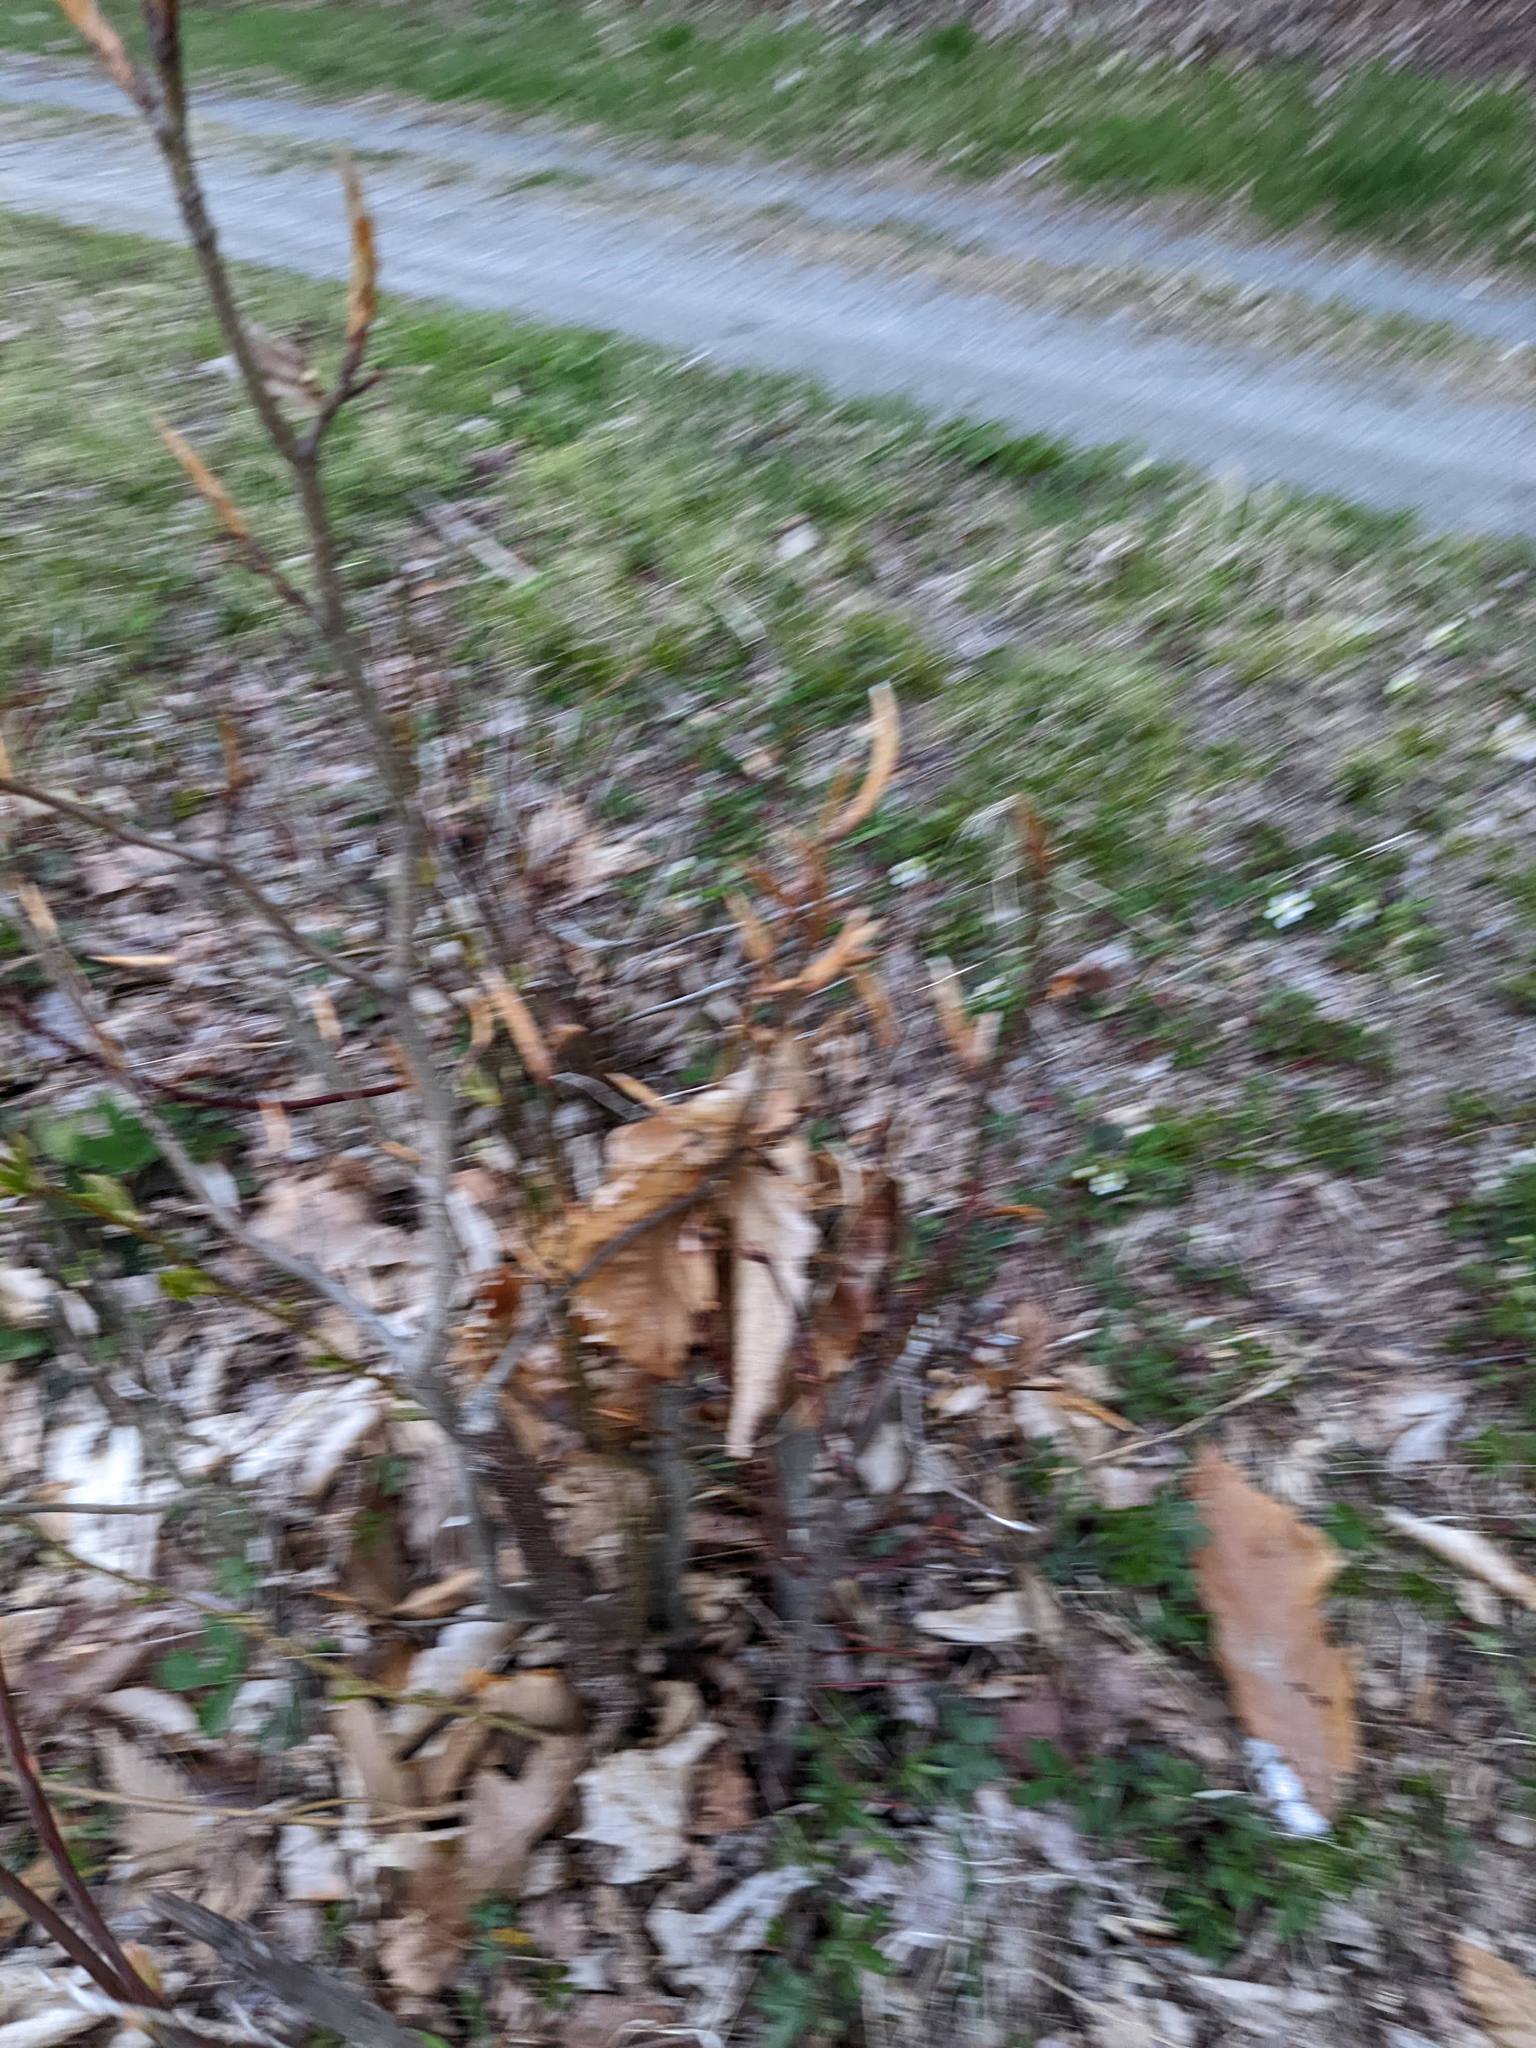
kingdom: Plantae
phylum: Tracheophyta
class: Magnoliopsida
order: Fagales
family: Fagaceae
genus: Fagus
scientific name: Fagus grandifolia
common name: American beech
